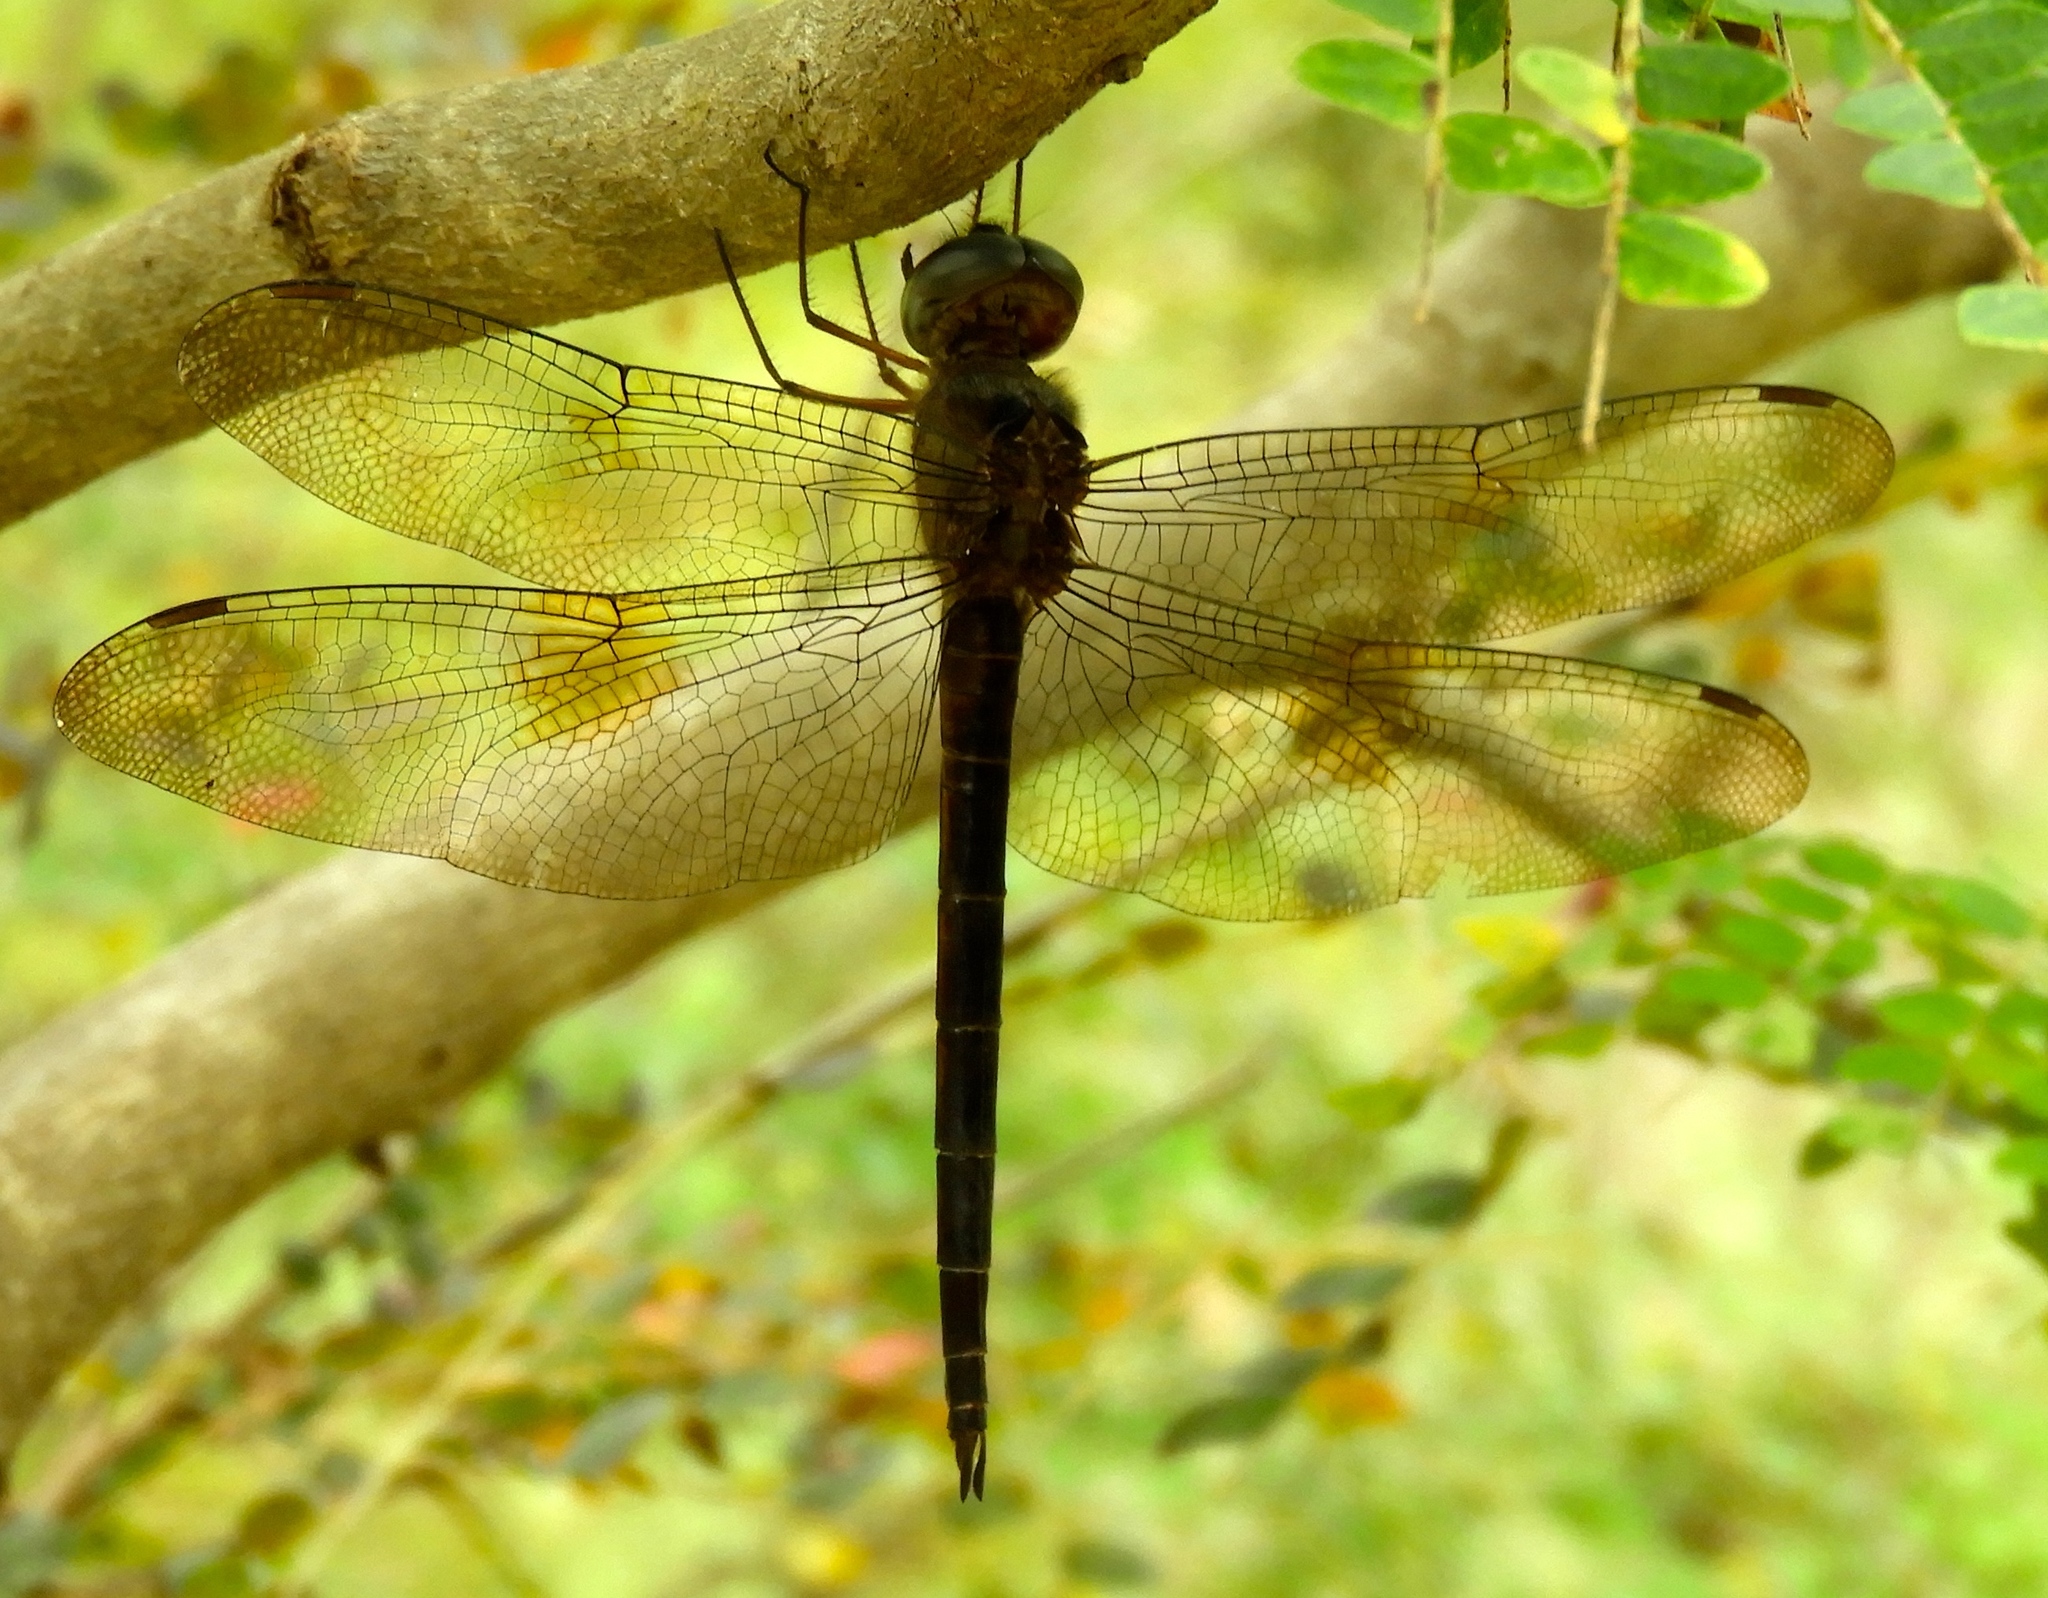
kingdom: Animalia
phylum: Arthropoda
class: Insecta
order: Odonata
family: Libellulidae
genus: Tholymis
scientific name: Tholymis citrina
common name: Evening skimmer
